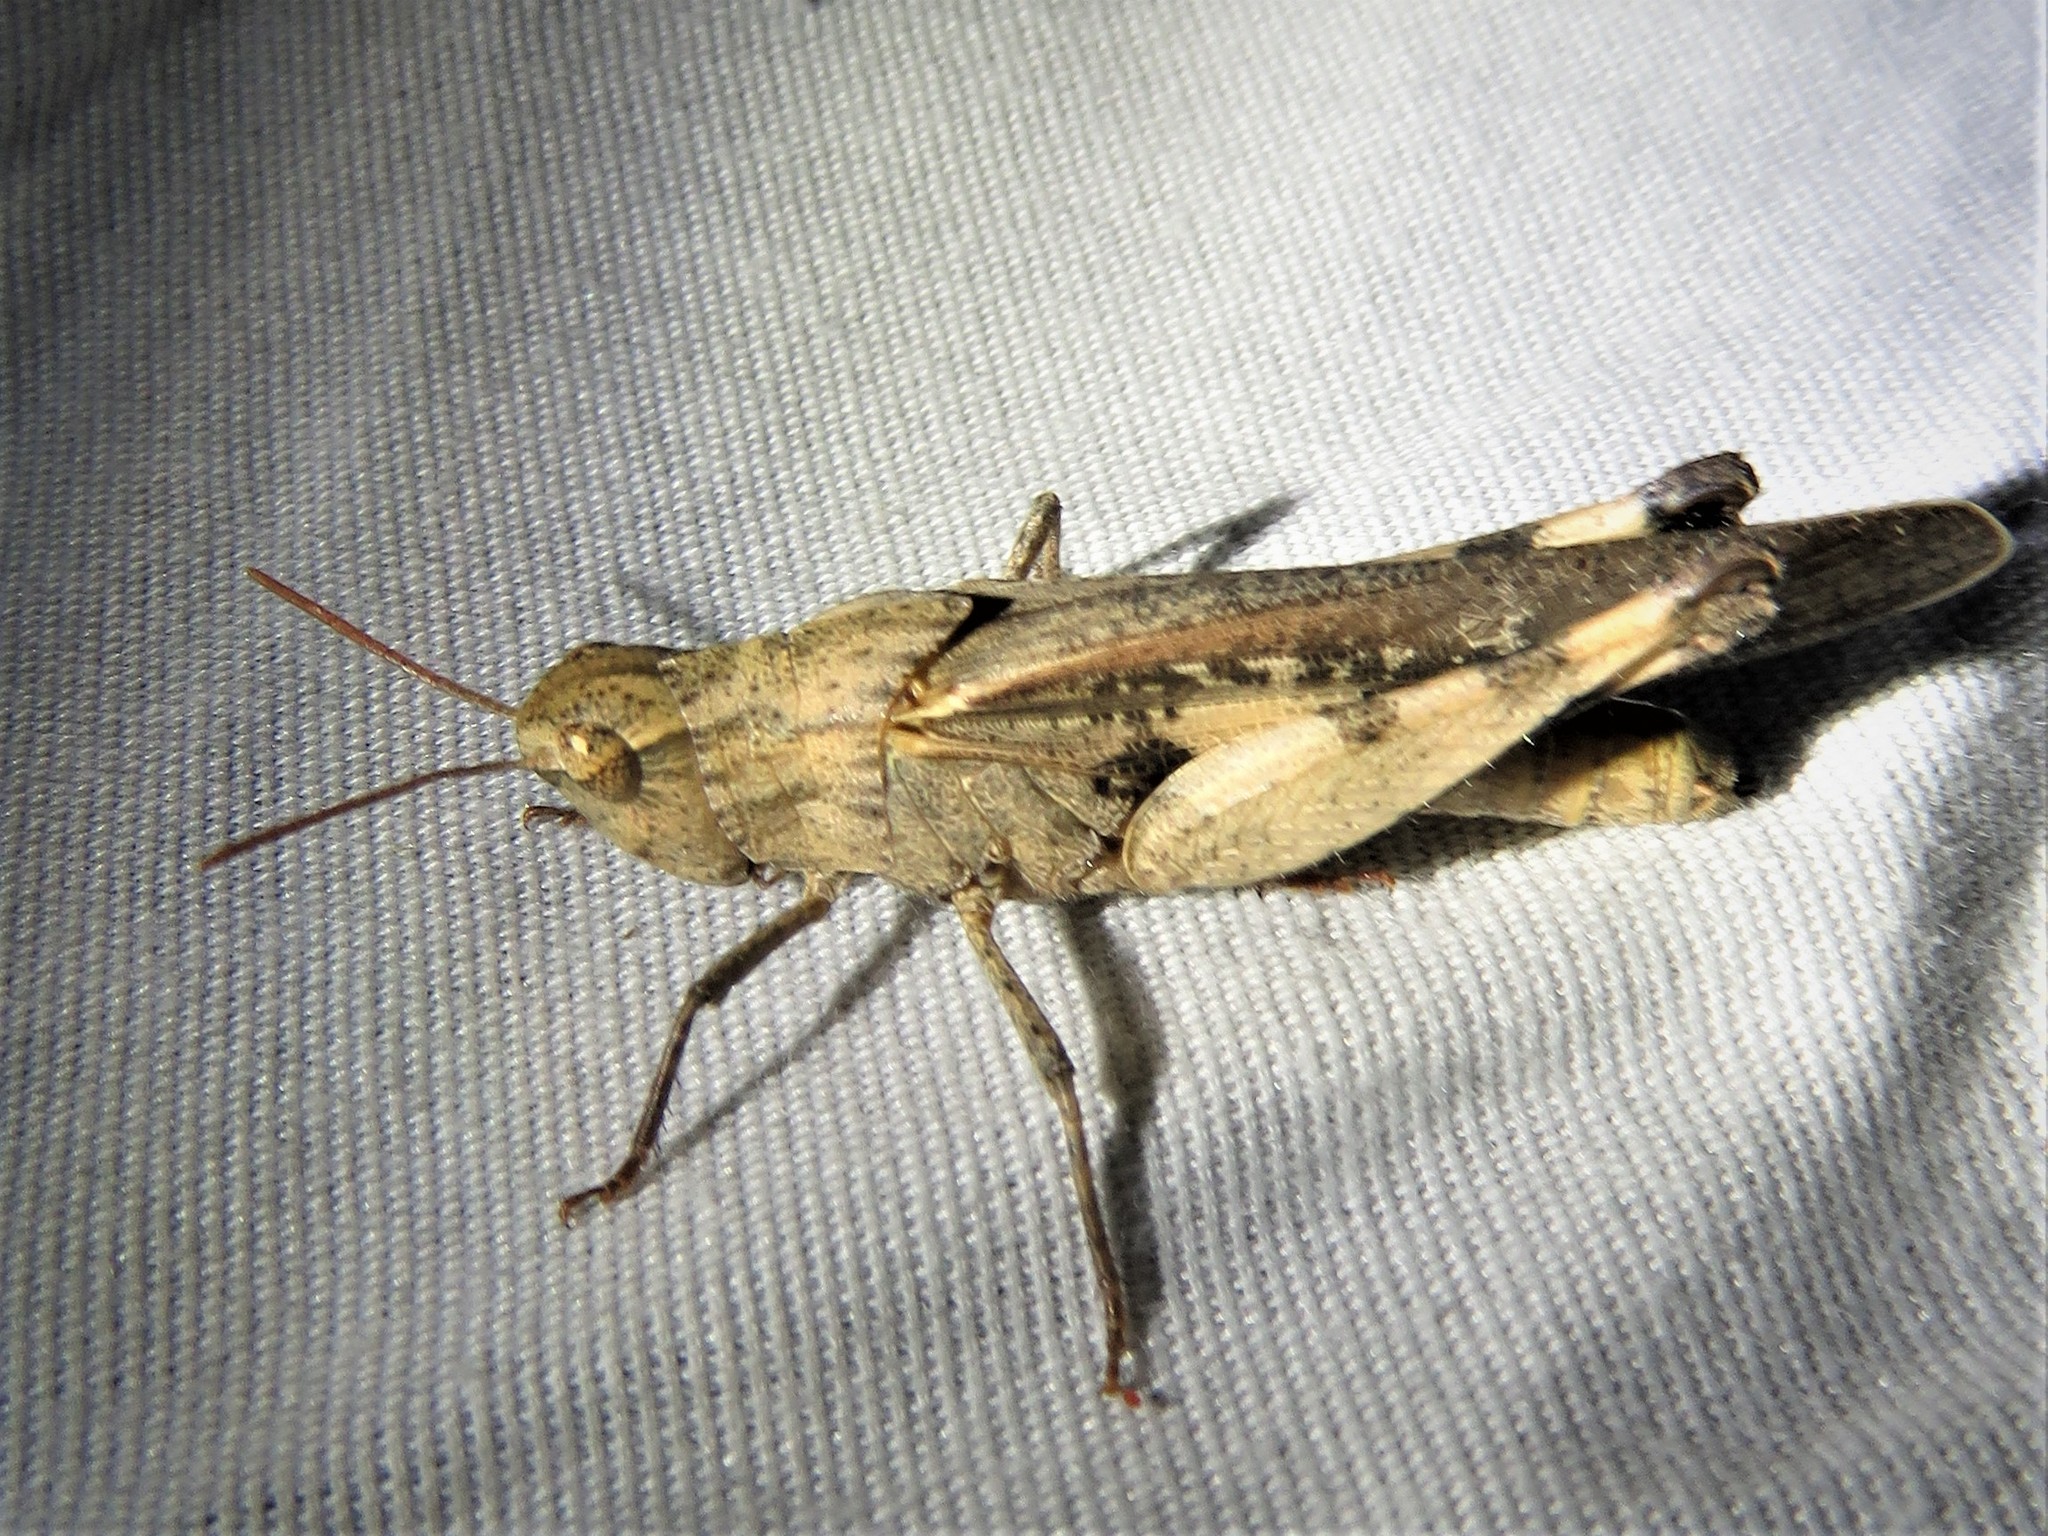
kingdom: Animalia
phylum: Arthropoda
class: Insecta
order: Orthoptera
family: Acrididae
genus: Chortophaga
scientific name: Chortophaga viridifasciata
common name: Green-striped grasshopper
